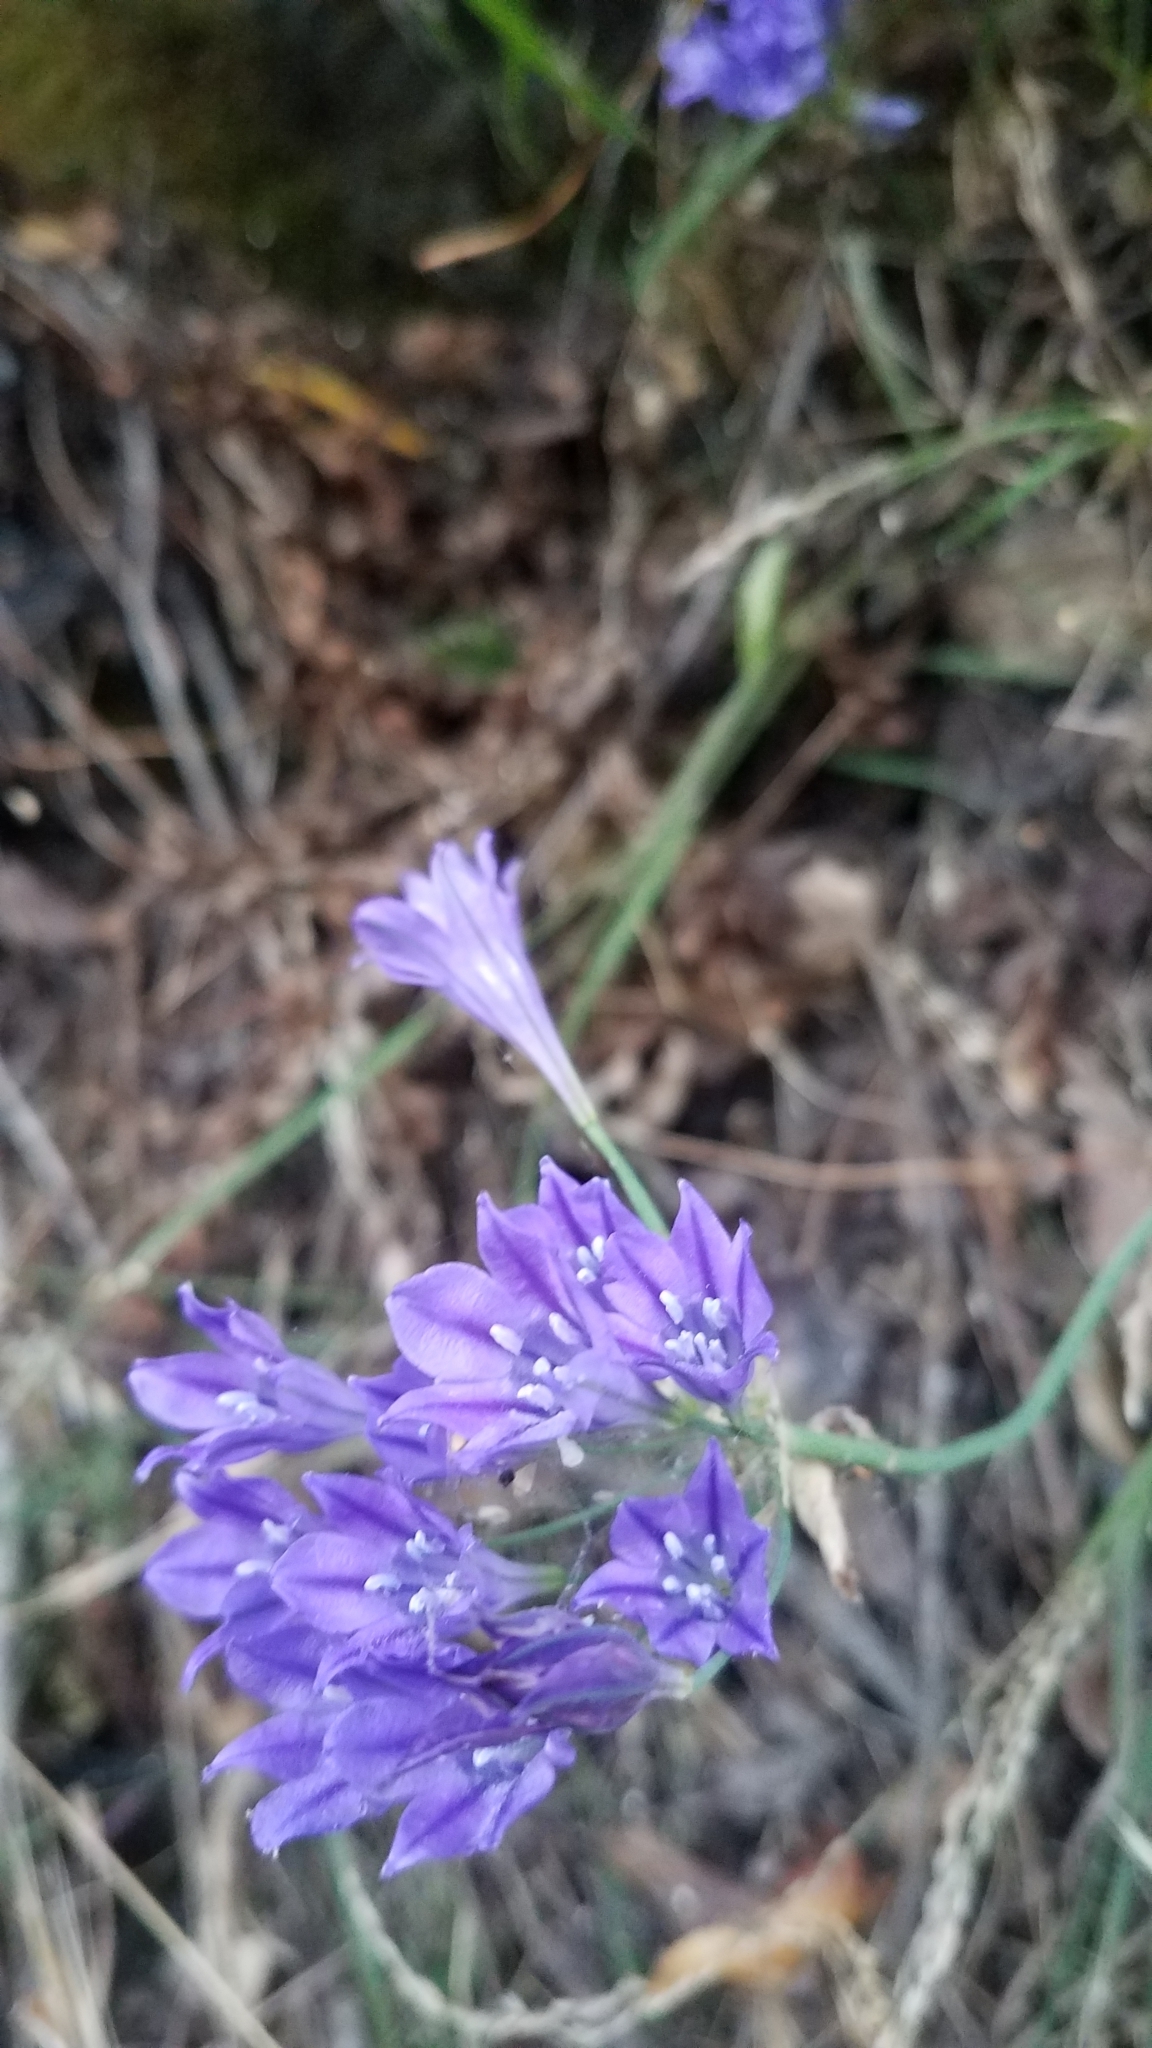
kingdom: Plantae
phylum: Tracheophyta
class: Liliopsida
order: Asparagales
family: Asparagaceae
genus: Triteleia
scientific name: Triteleia laxa
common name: Triplet-lily
